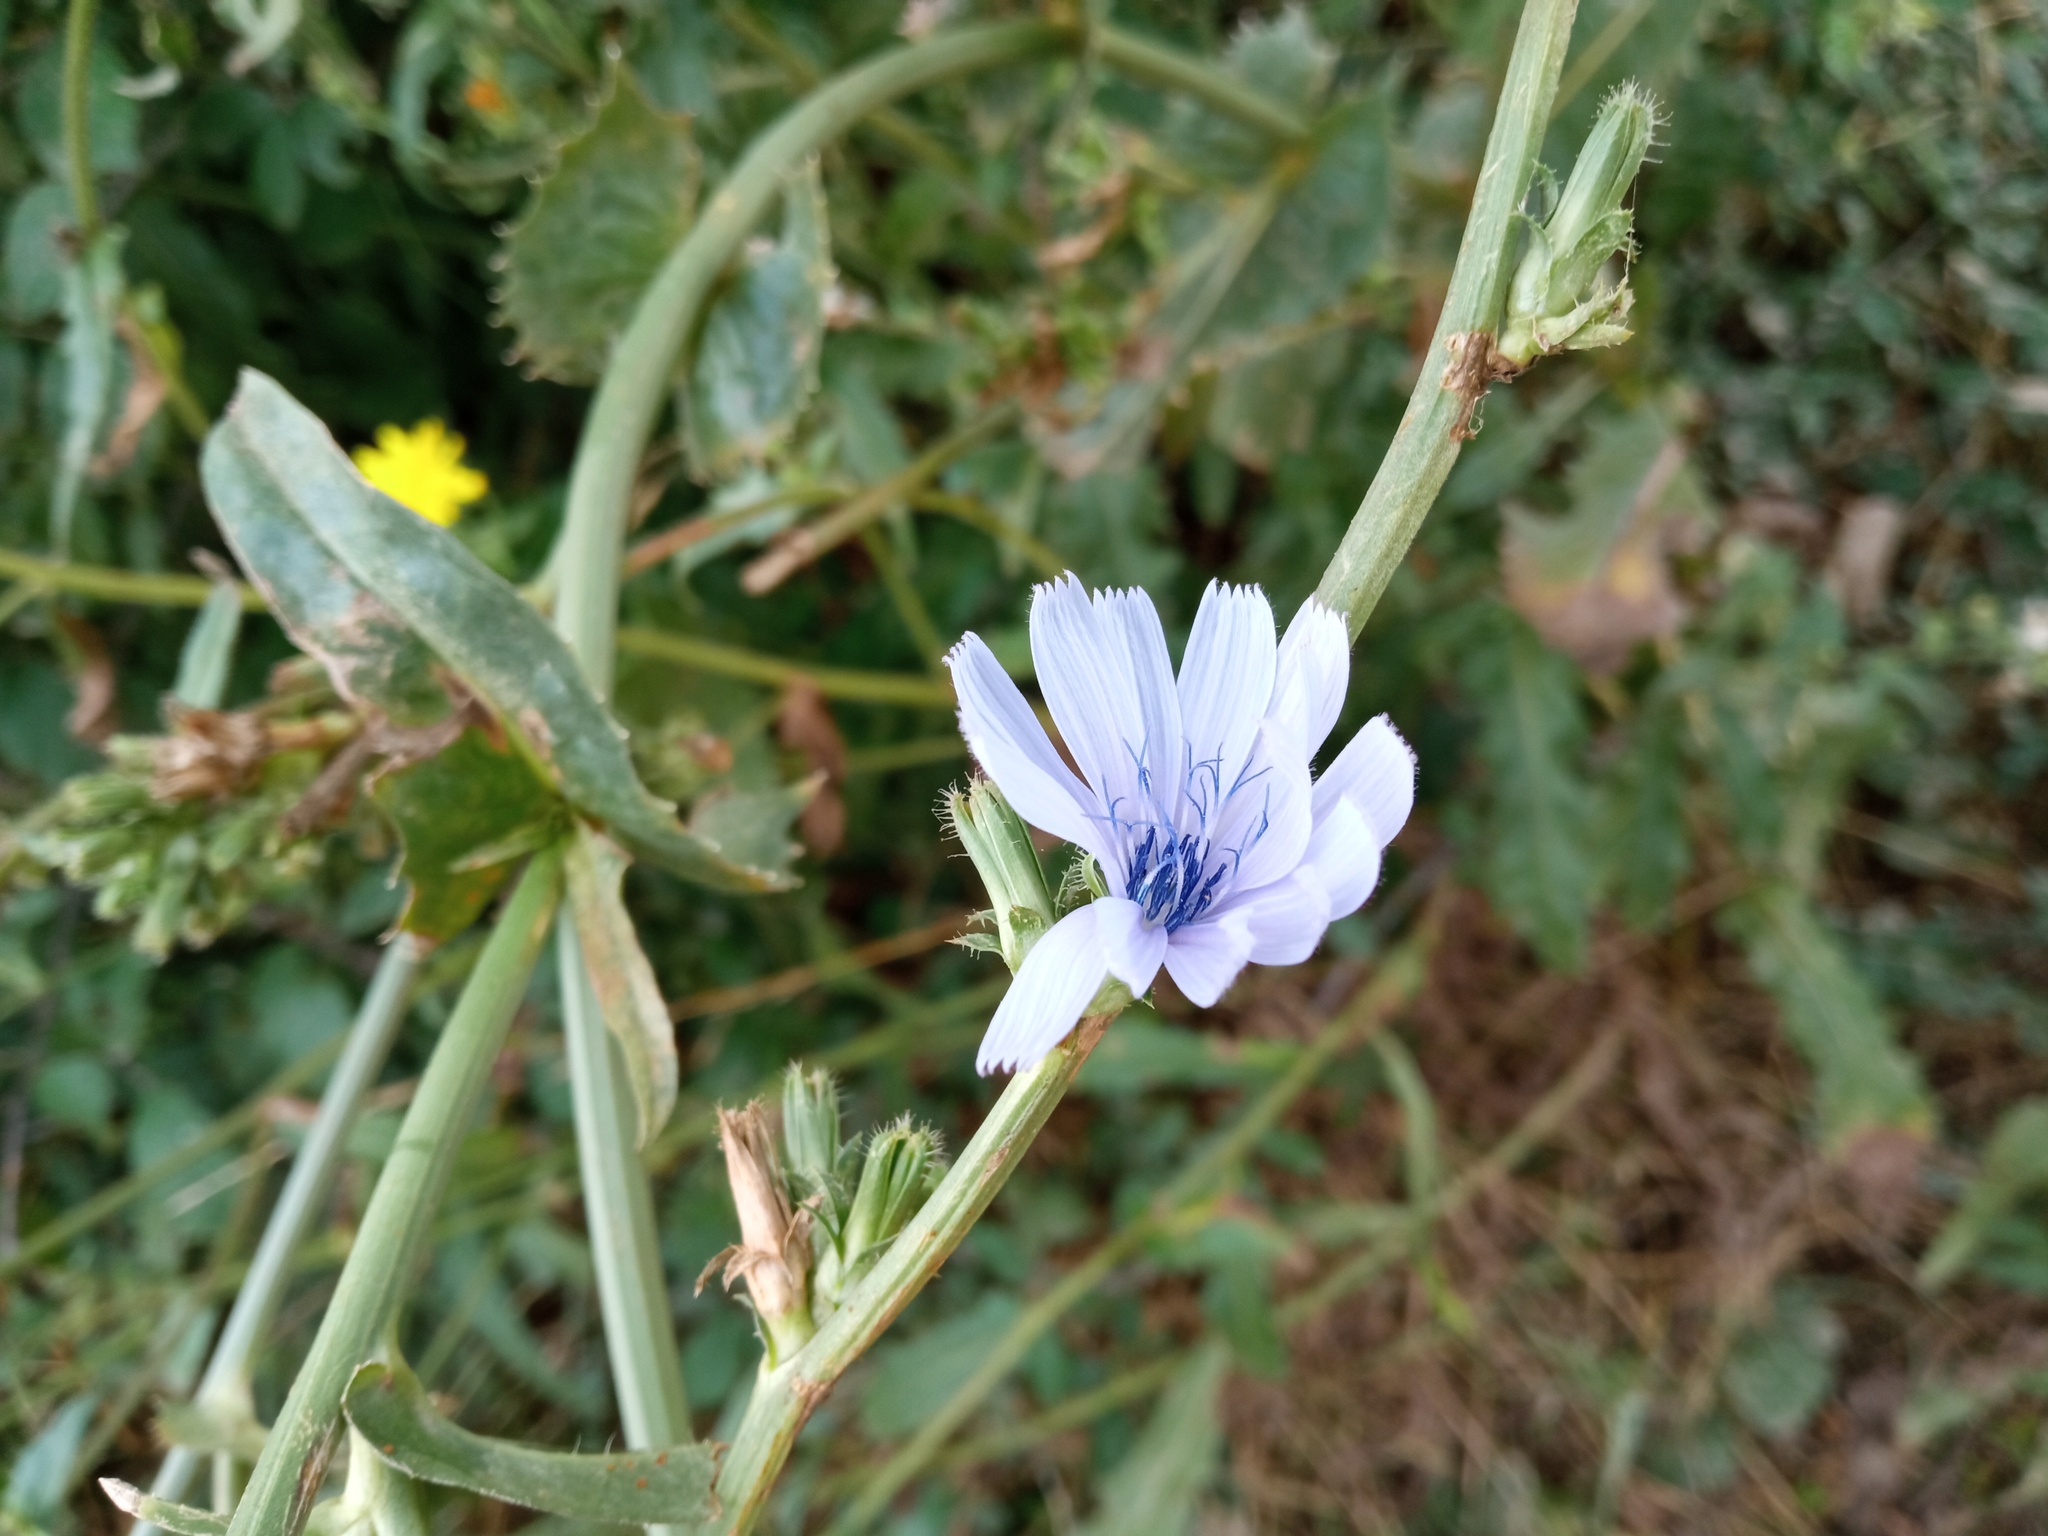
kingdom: Plantae
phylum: Tracheophyta
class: Magnoliopsida
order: Asterales
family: Asteraceae
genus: Cichorium
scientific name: Cichorium intybus
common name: Chicory
